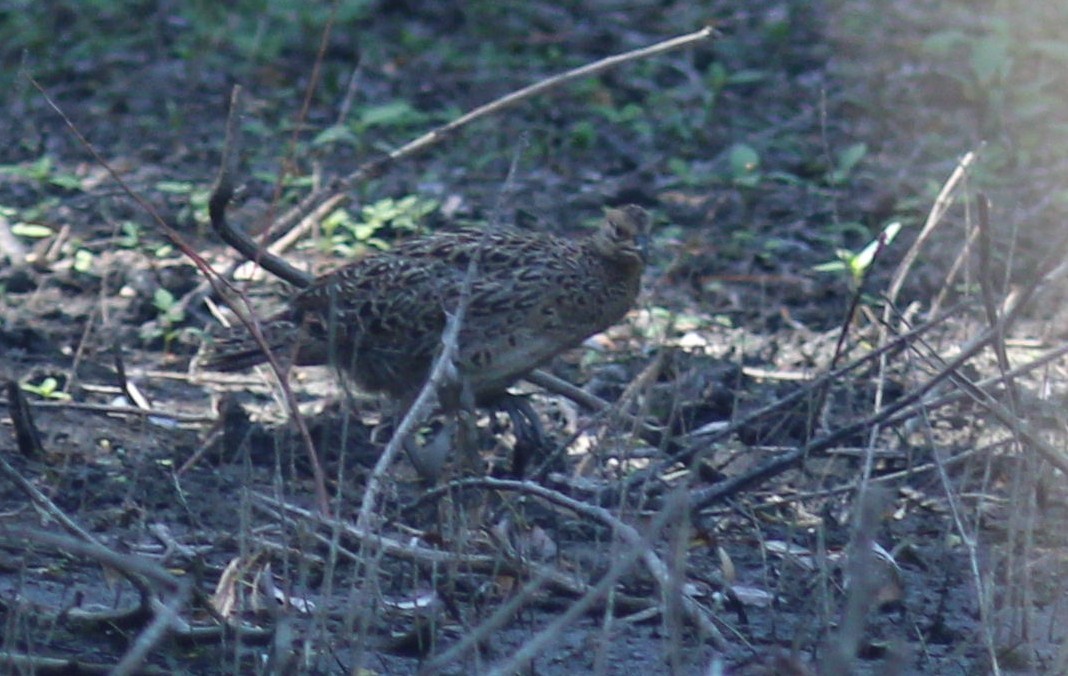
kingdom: Animalia
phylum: Chordata
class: Aves
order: Galliformes
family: Phasianidae
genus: Phasianus
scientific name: Phasianus colchicus
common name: Common pheasant
